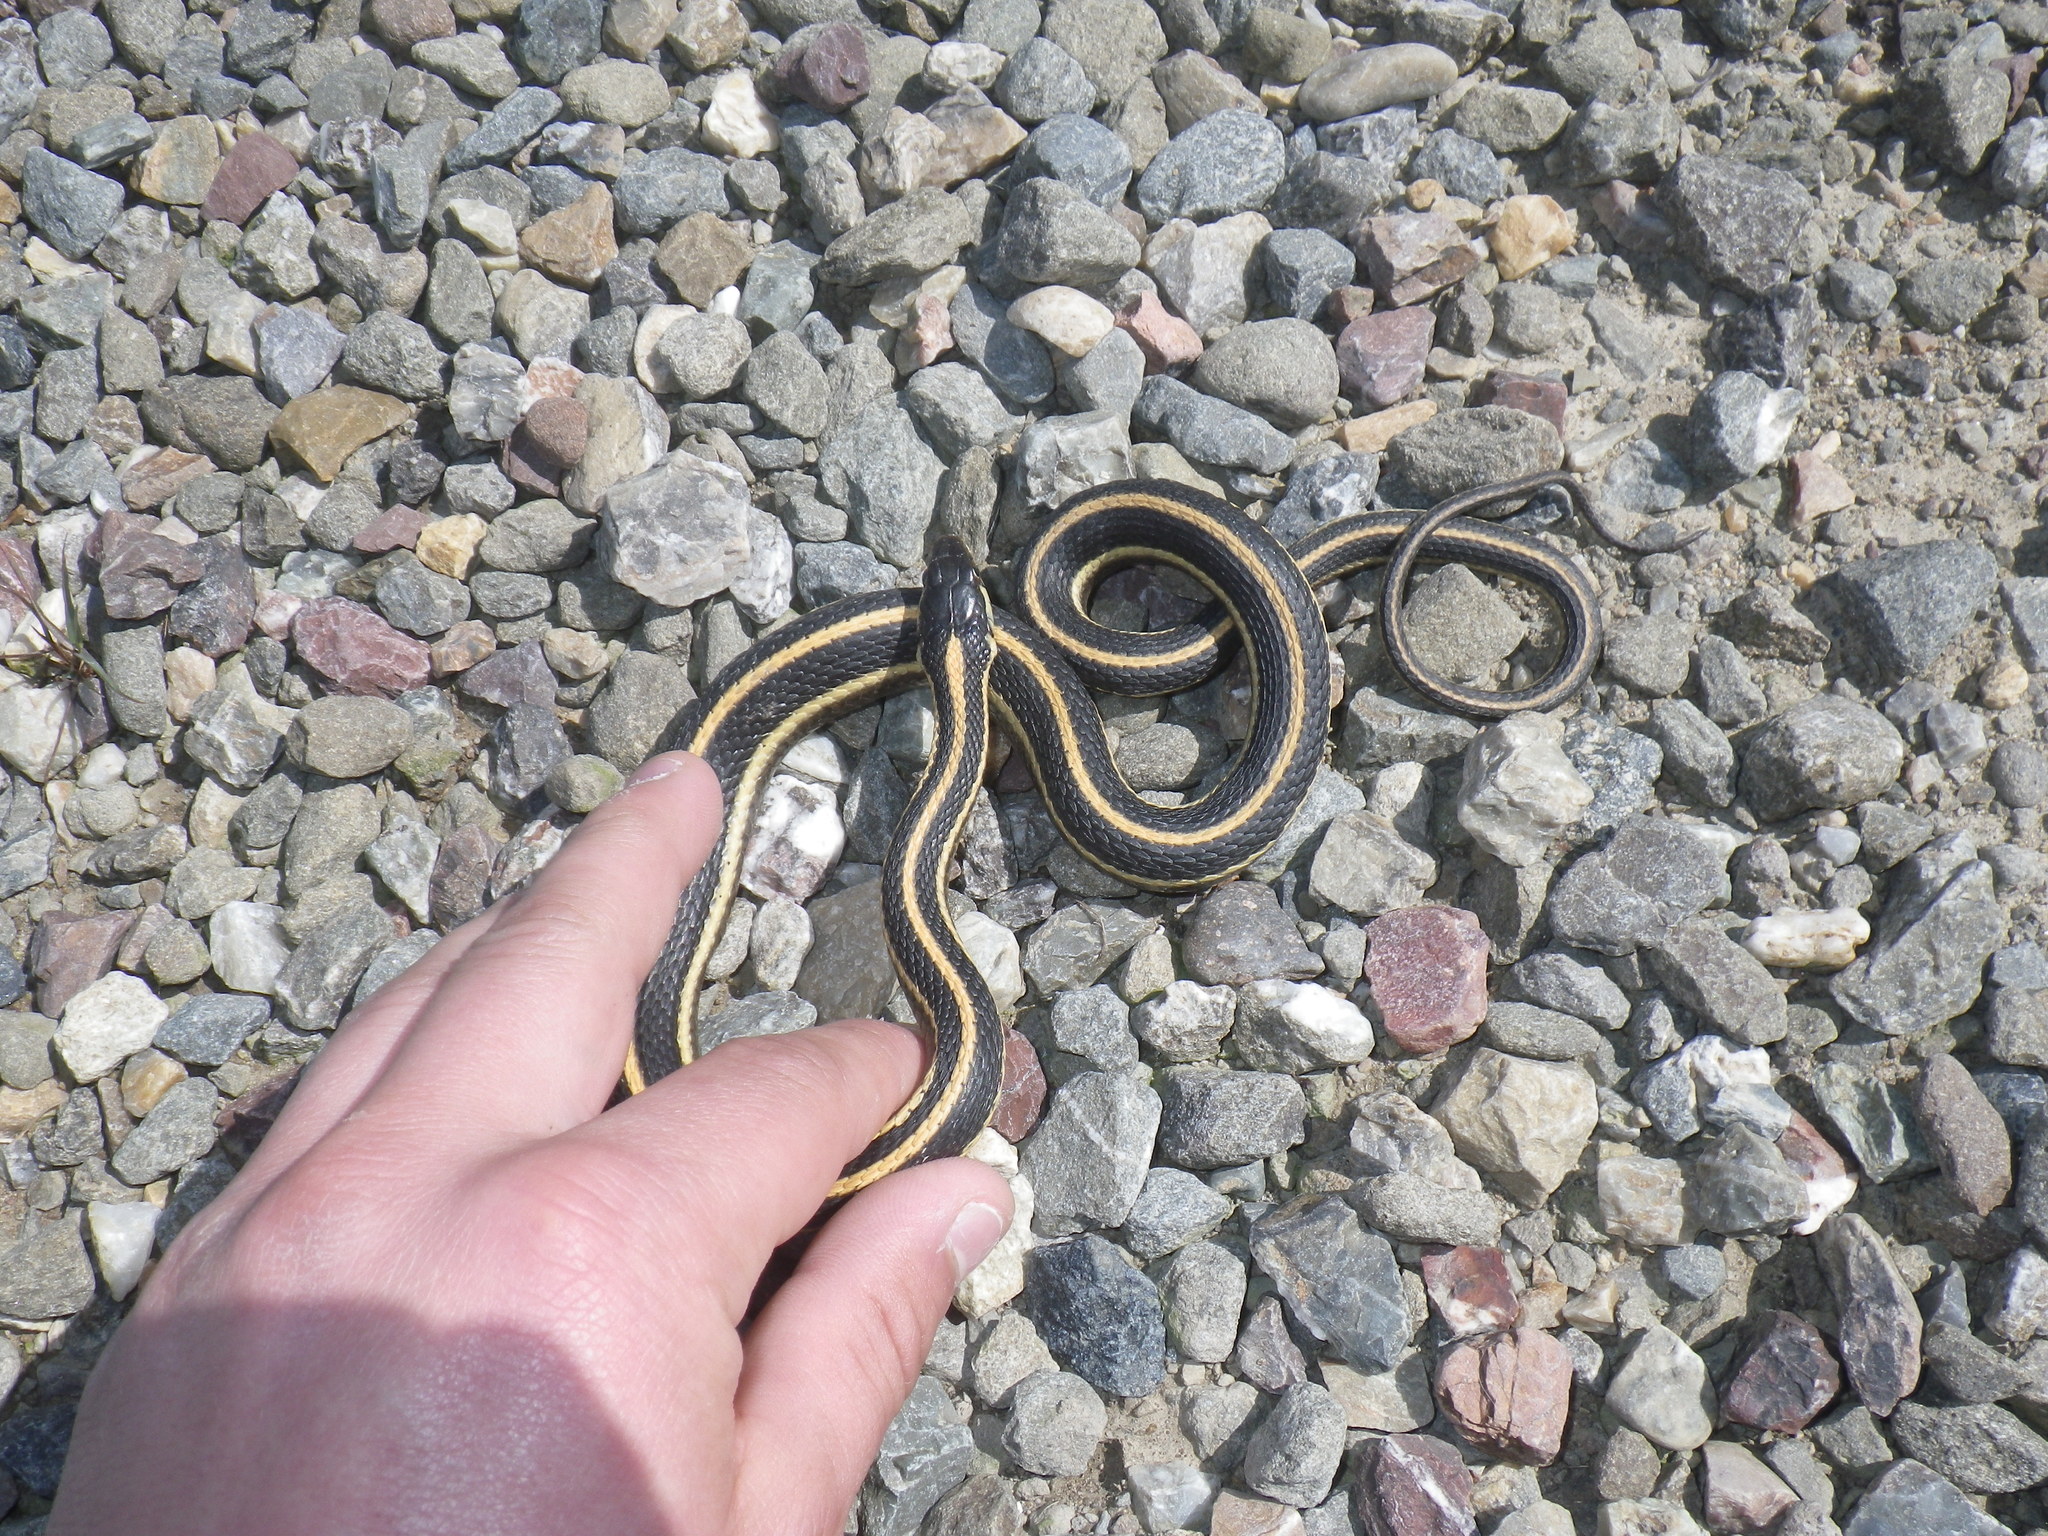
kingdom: Animalia
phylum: Chordata
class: Squamata
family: Colubridae
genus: Thamnophis
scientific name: Thamnophis elegans
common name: Western terrestrial garter snake
